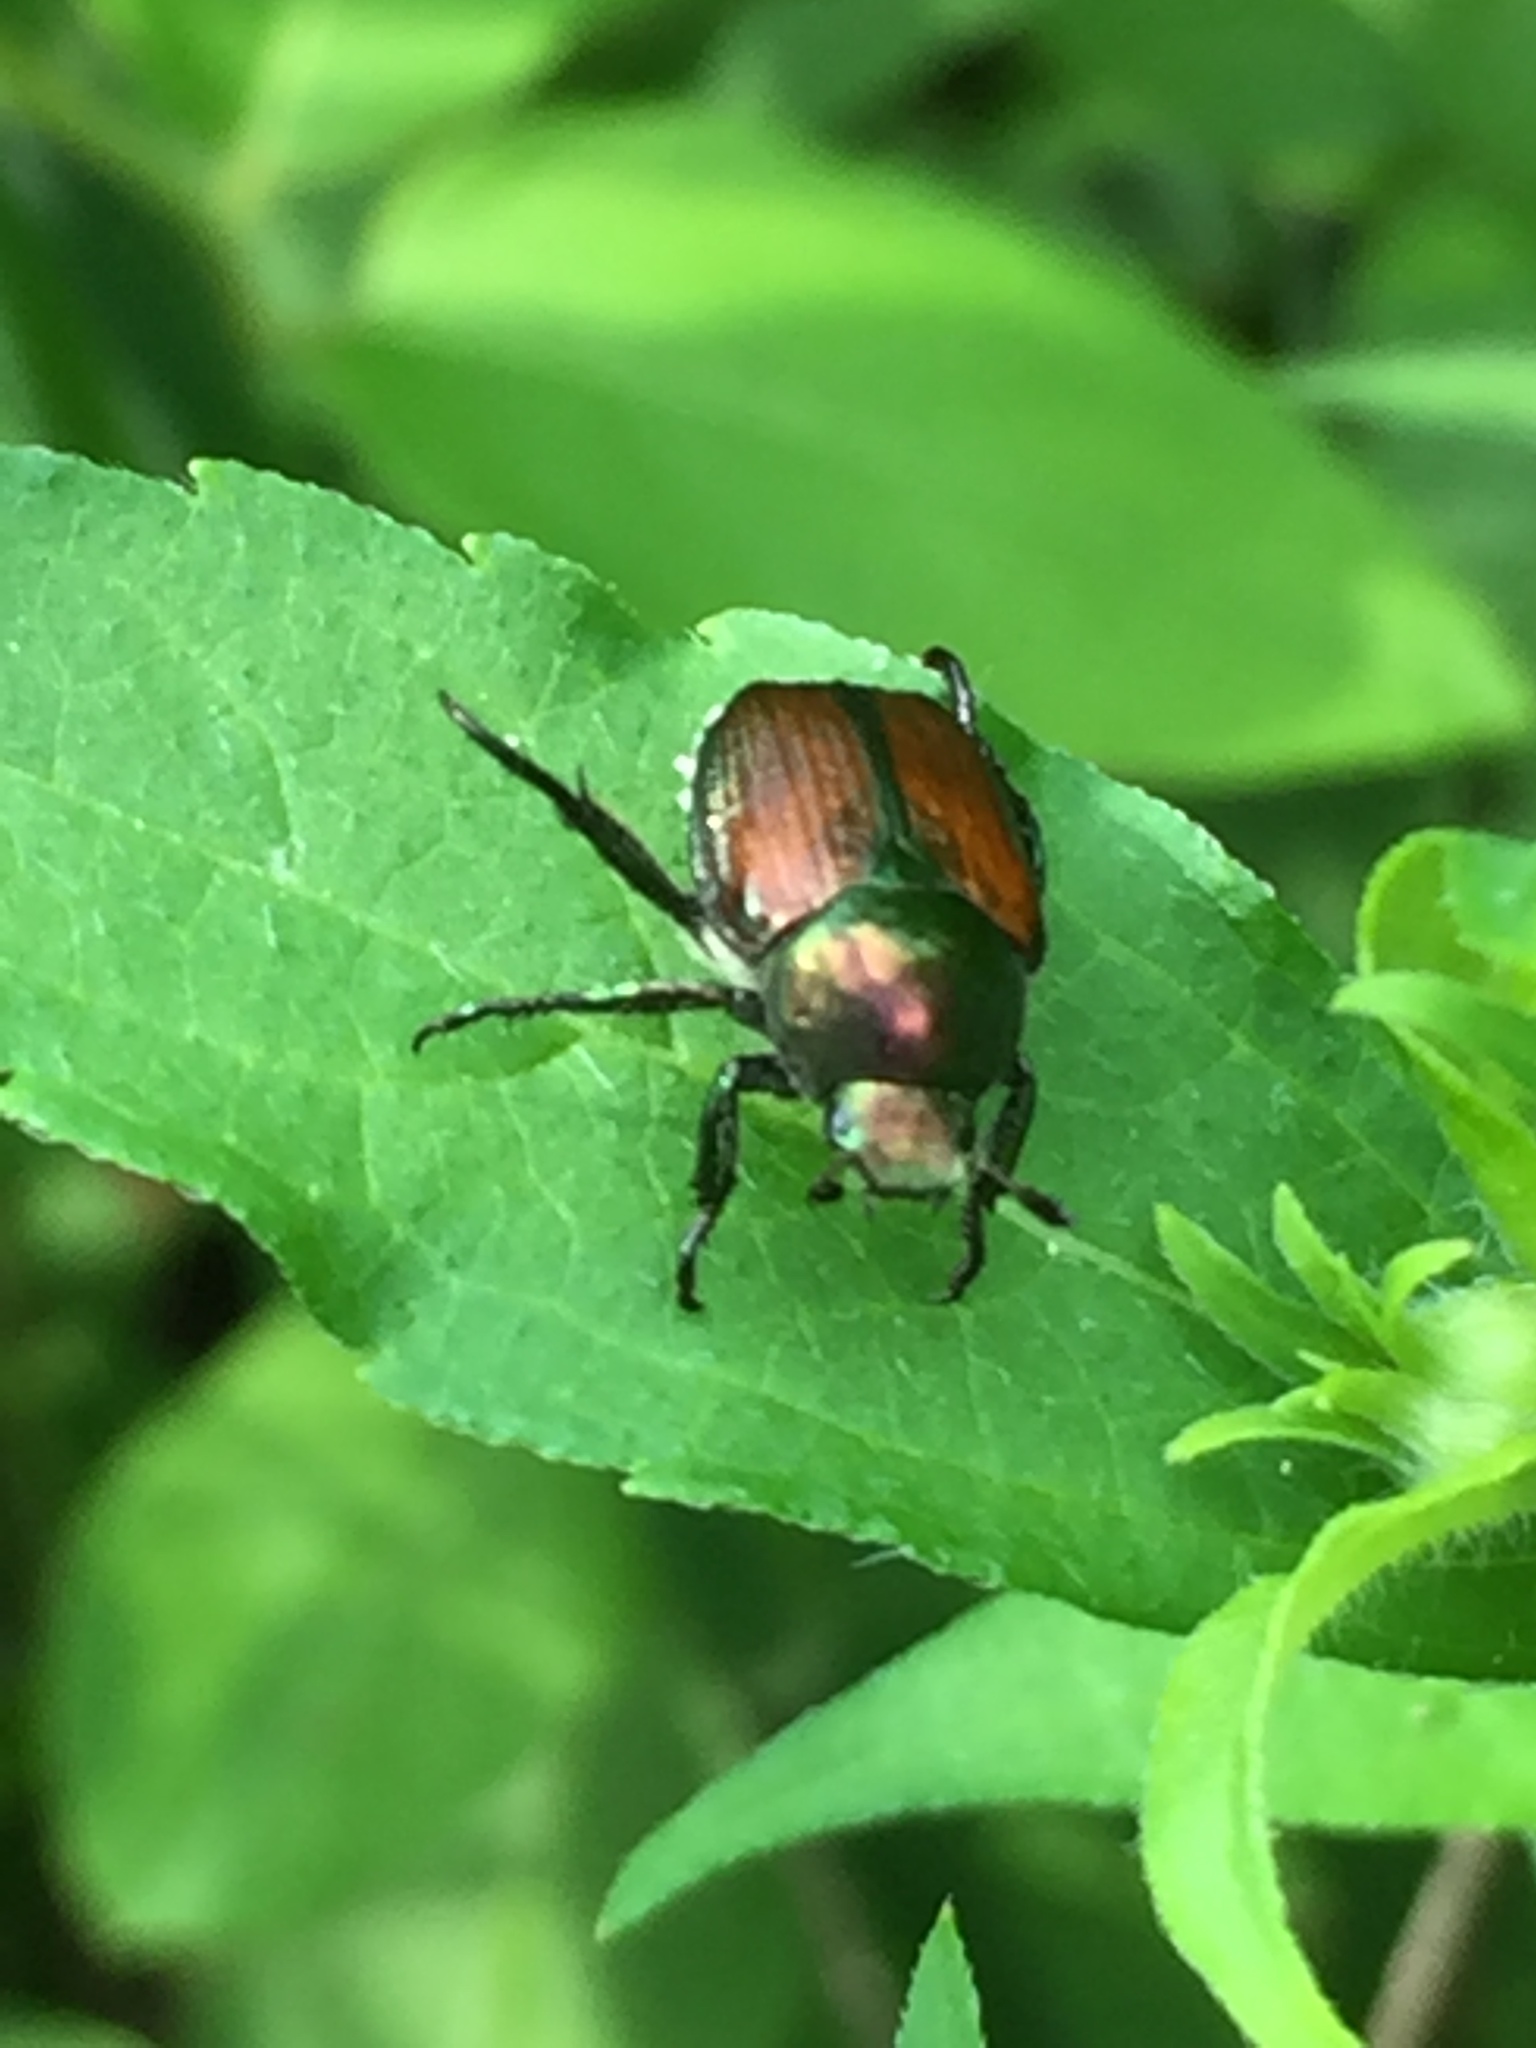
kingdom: Animalia
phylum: Arthropoda
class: Insecta
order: Coleoptera
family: Scarabaeidae
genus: Popillia
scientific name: Popillia japonica
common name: Japanese beetle
